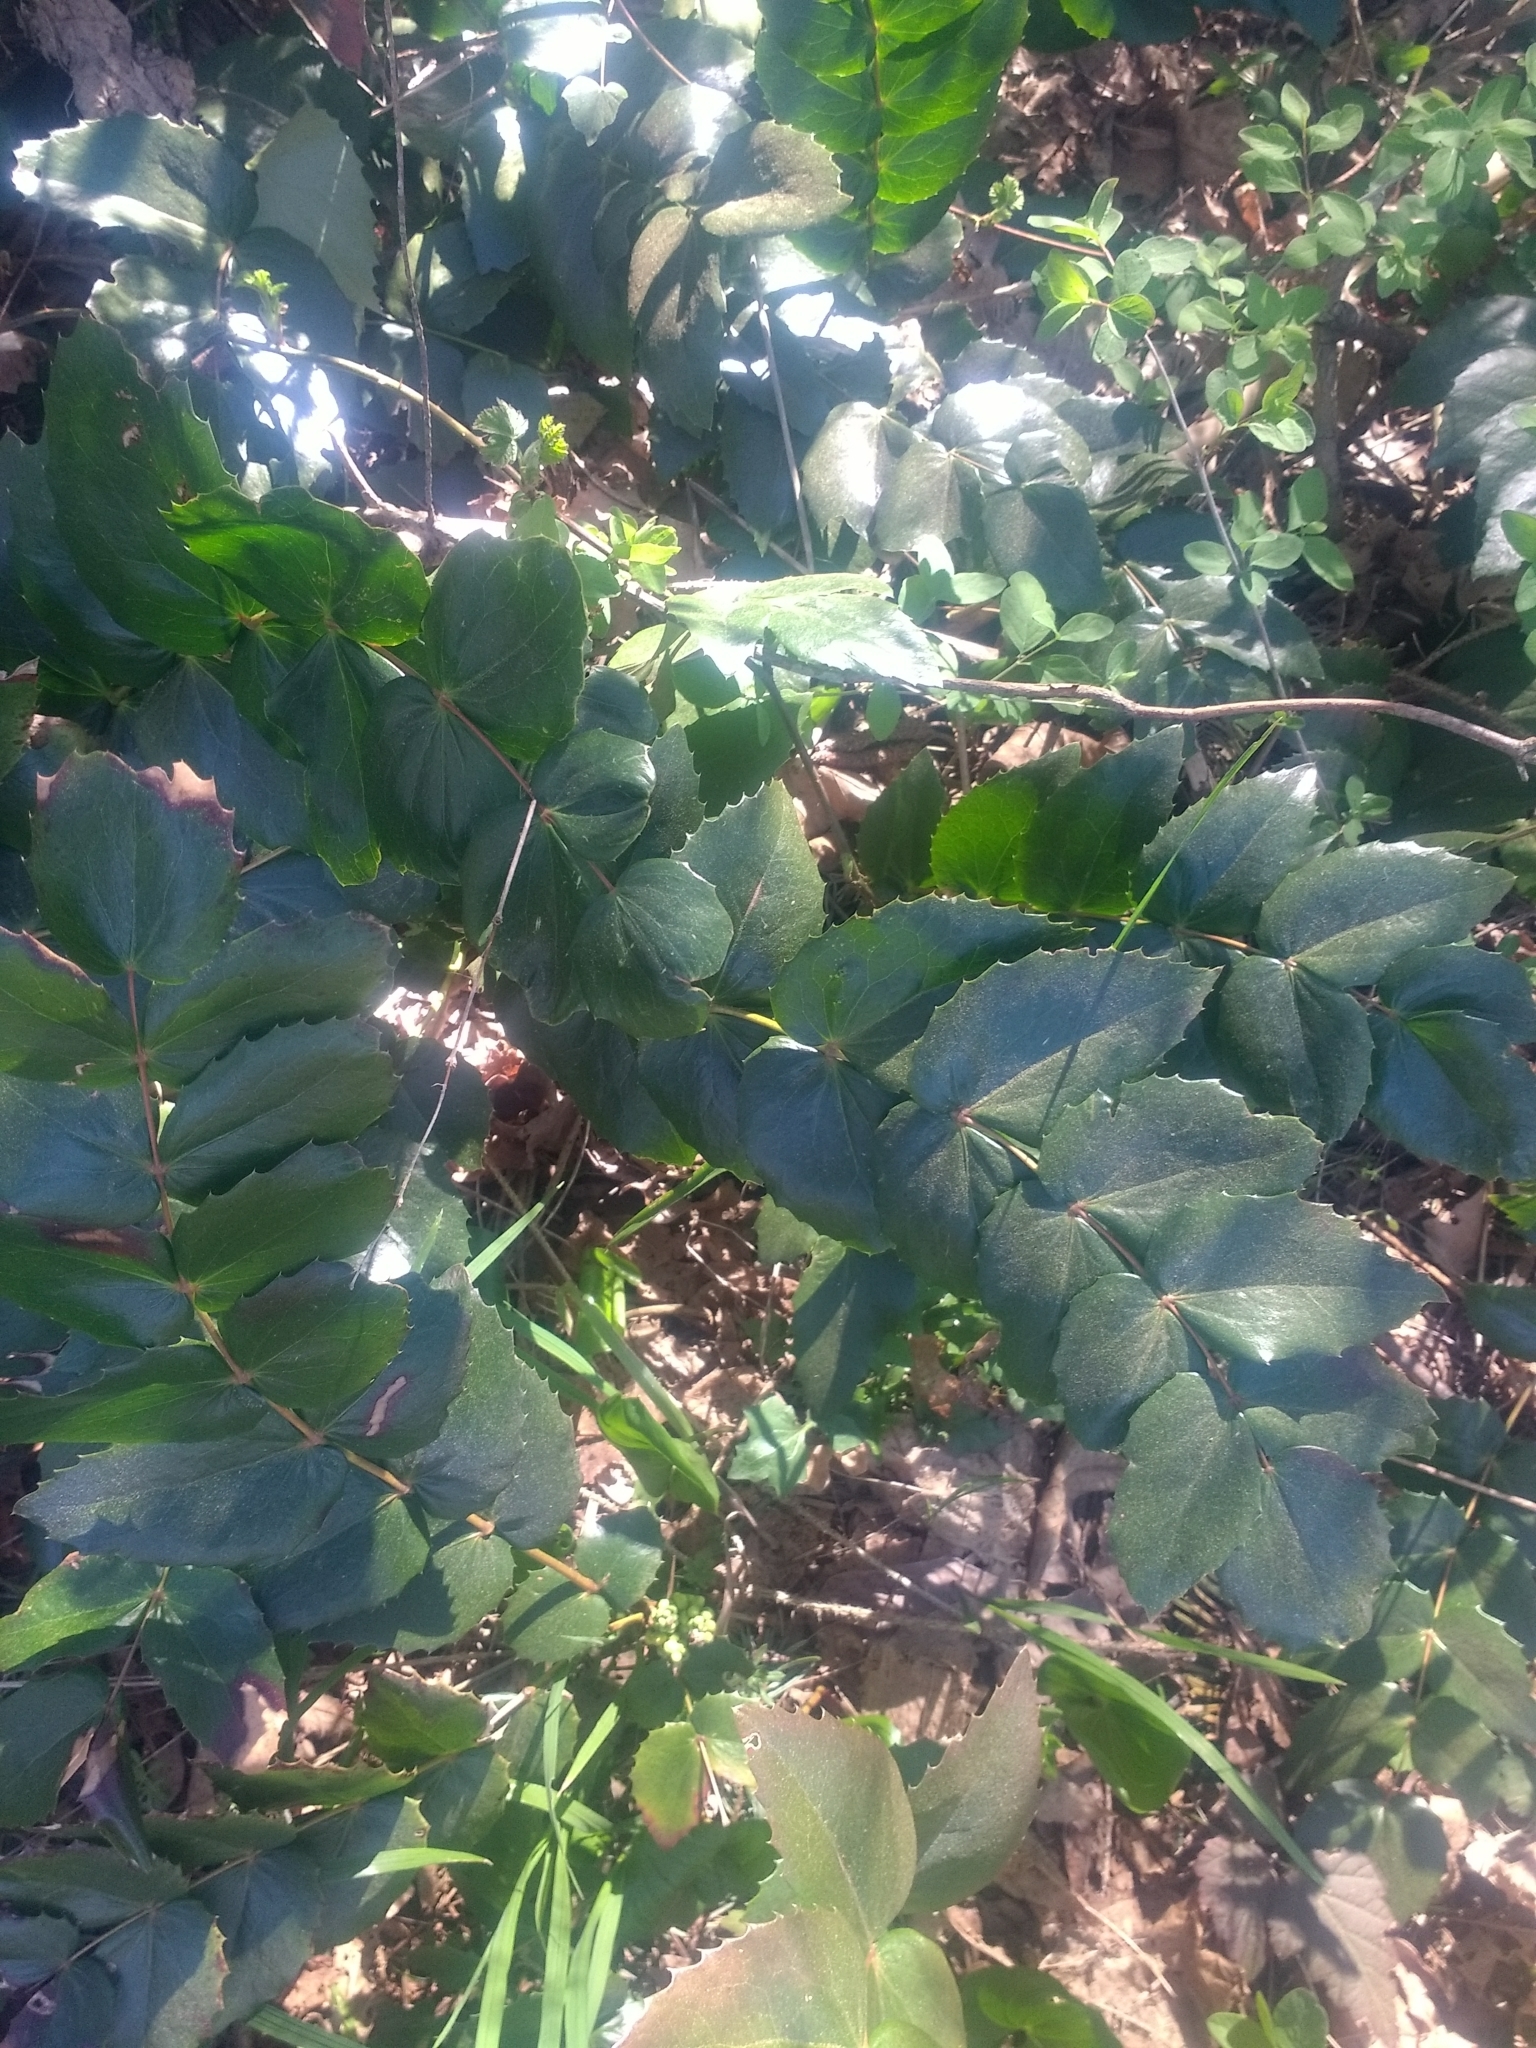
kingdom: Plantae
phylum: Tracheophyta
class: Magnoliopsida
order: Ranunculales
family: Berberidaceae
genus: Mahonia
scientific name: Mahonia nervosa
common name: Cascade oregon-grape
